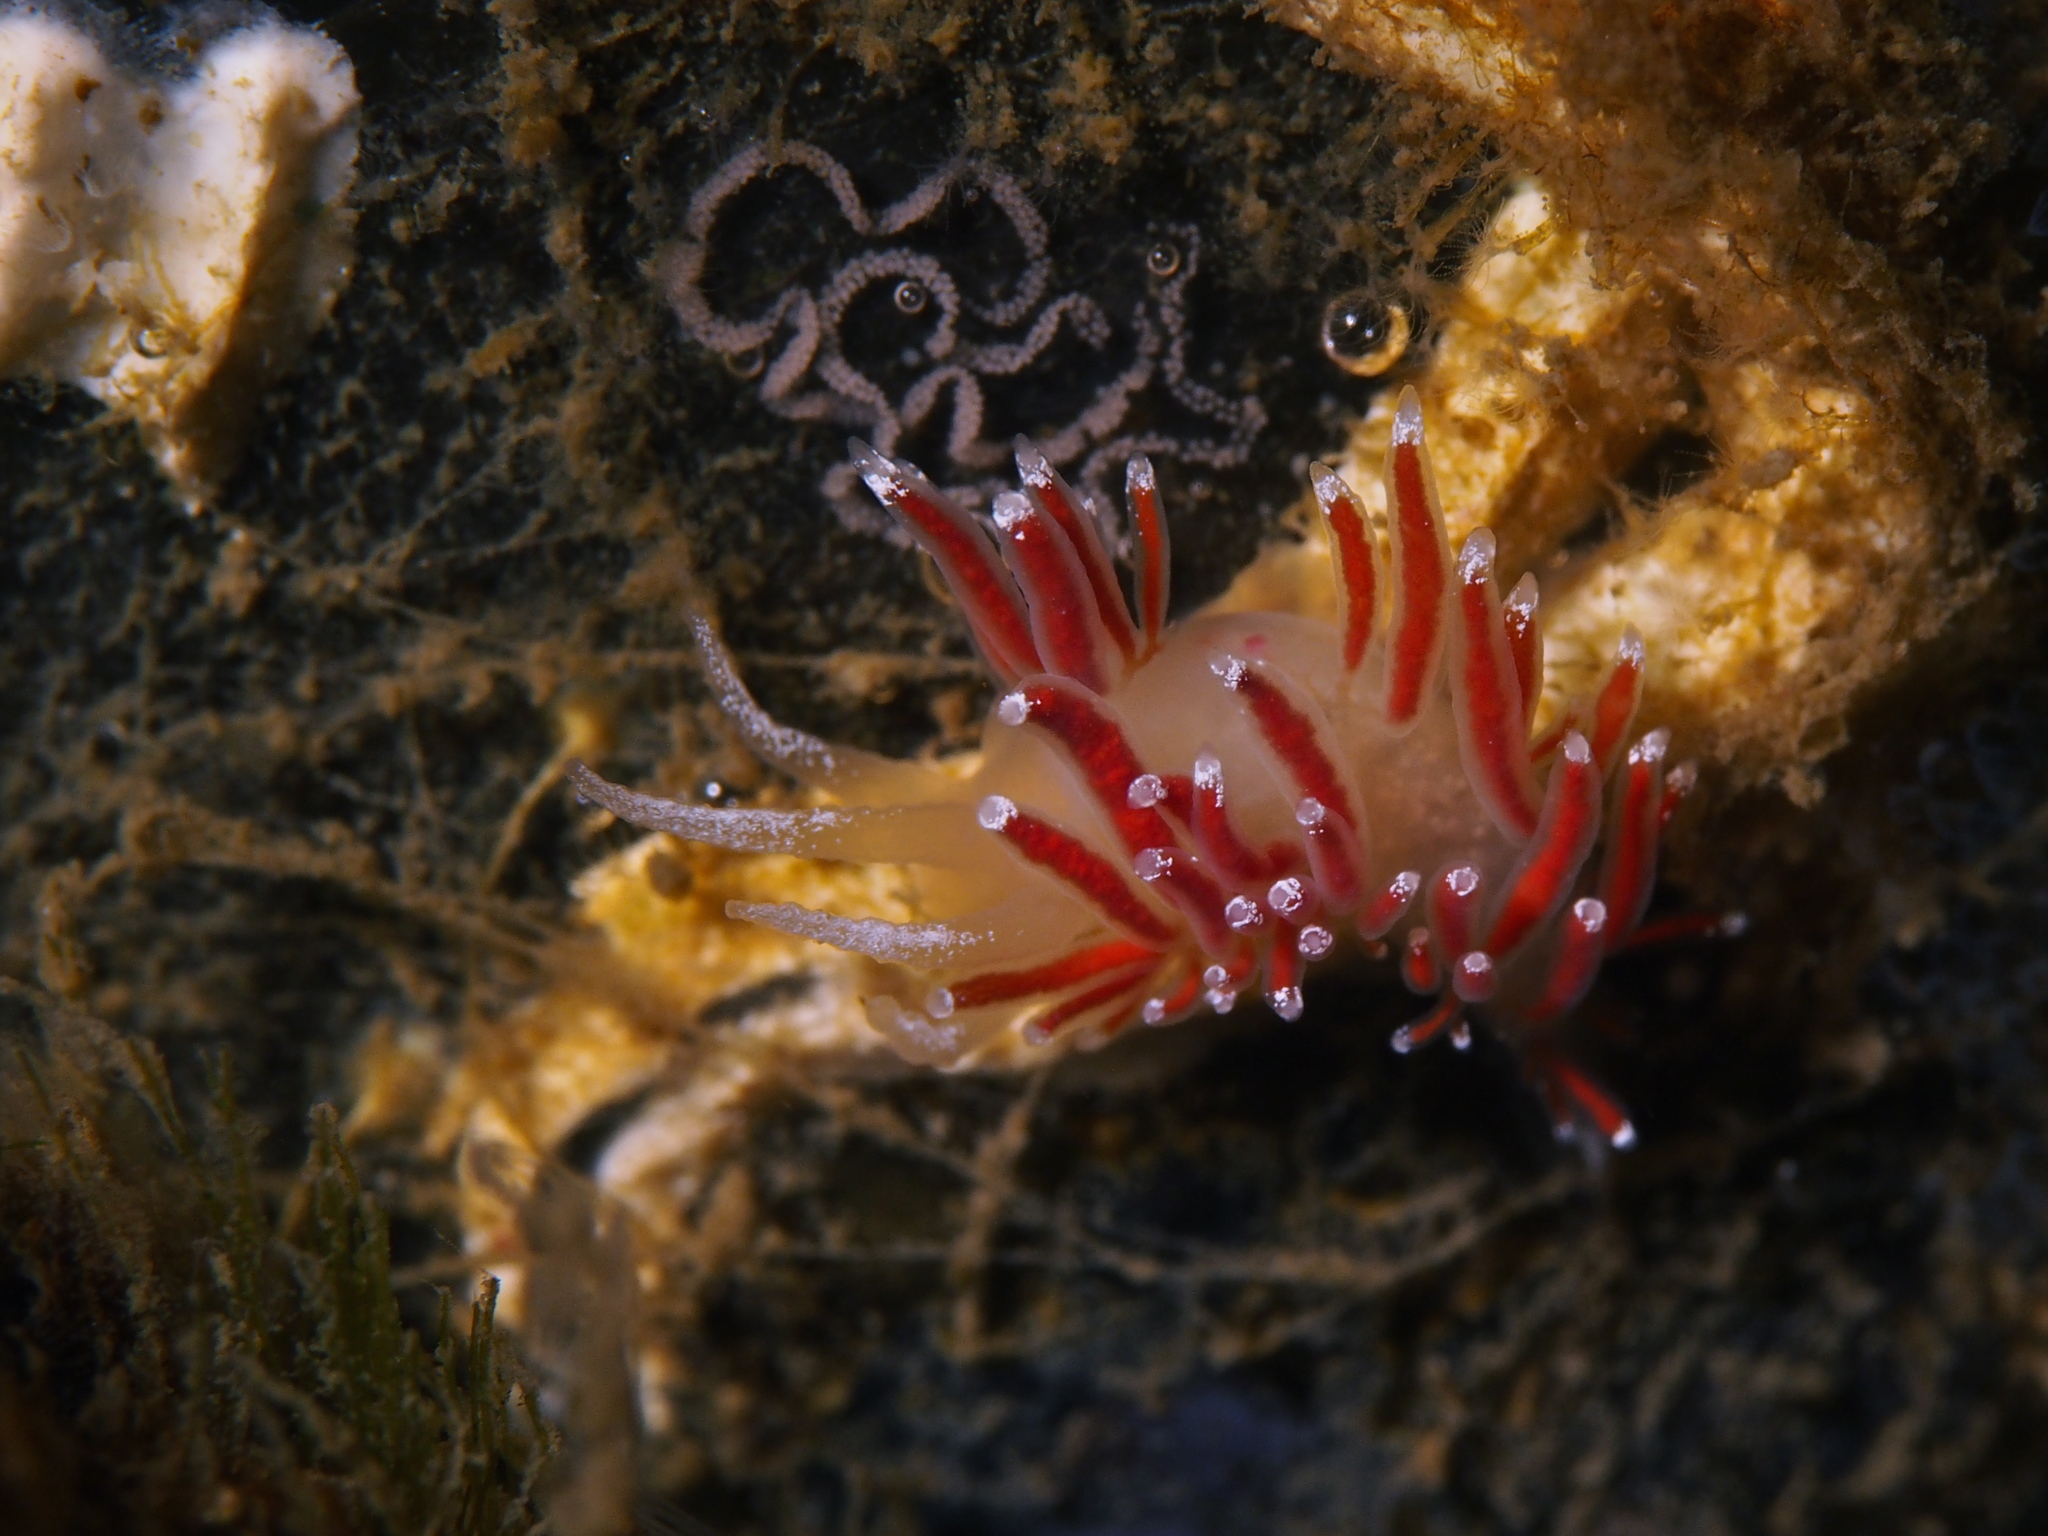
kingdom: Animalia
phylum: Mollusca
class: Gastropoda
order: Nudibranchia
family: Coryphellidae
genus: Coryphella
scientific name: Coryphella gracilis
